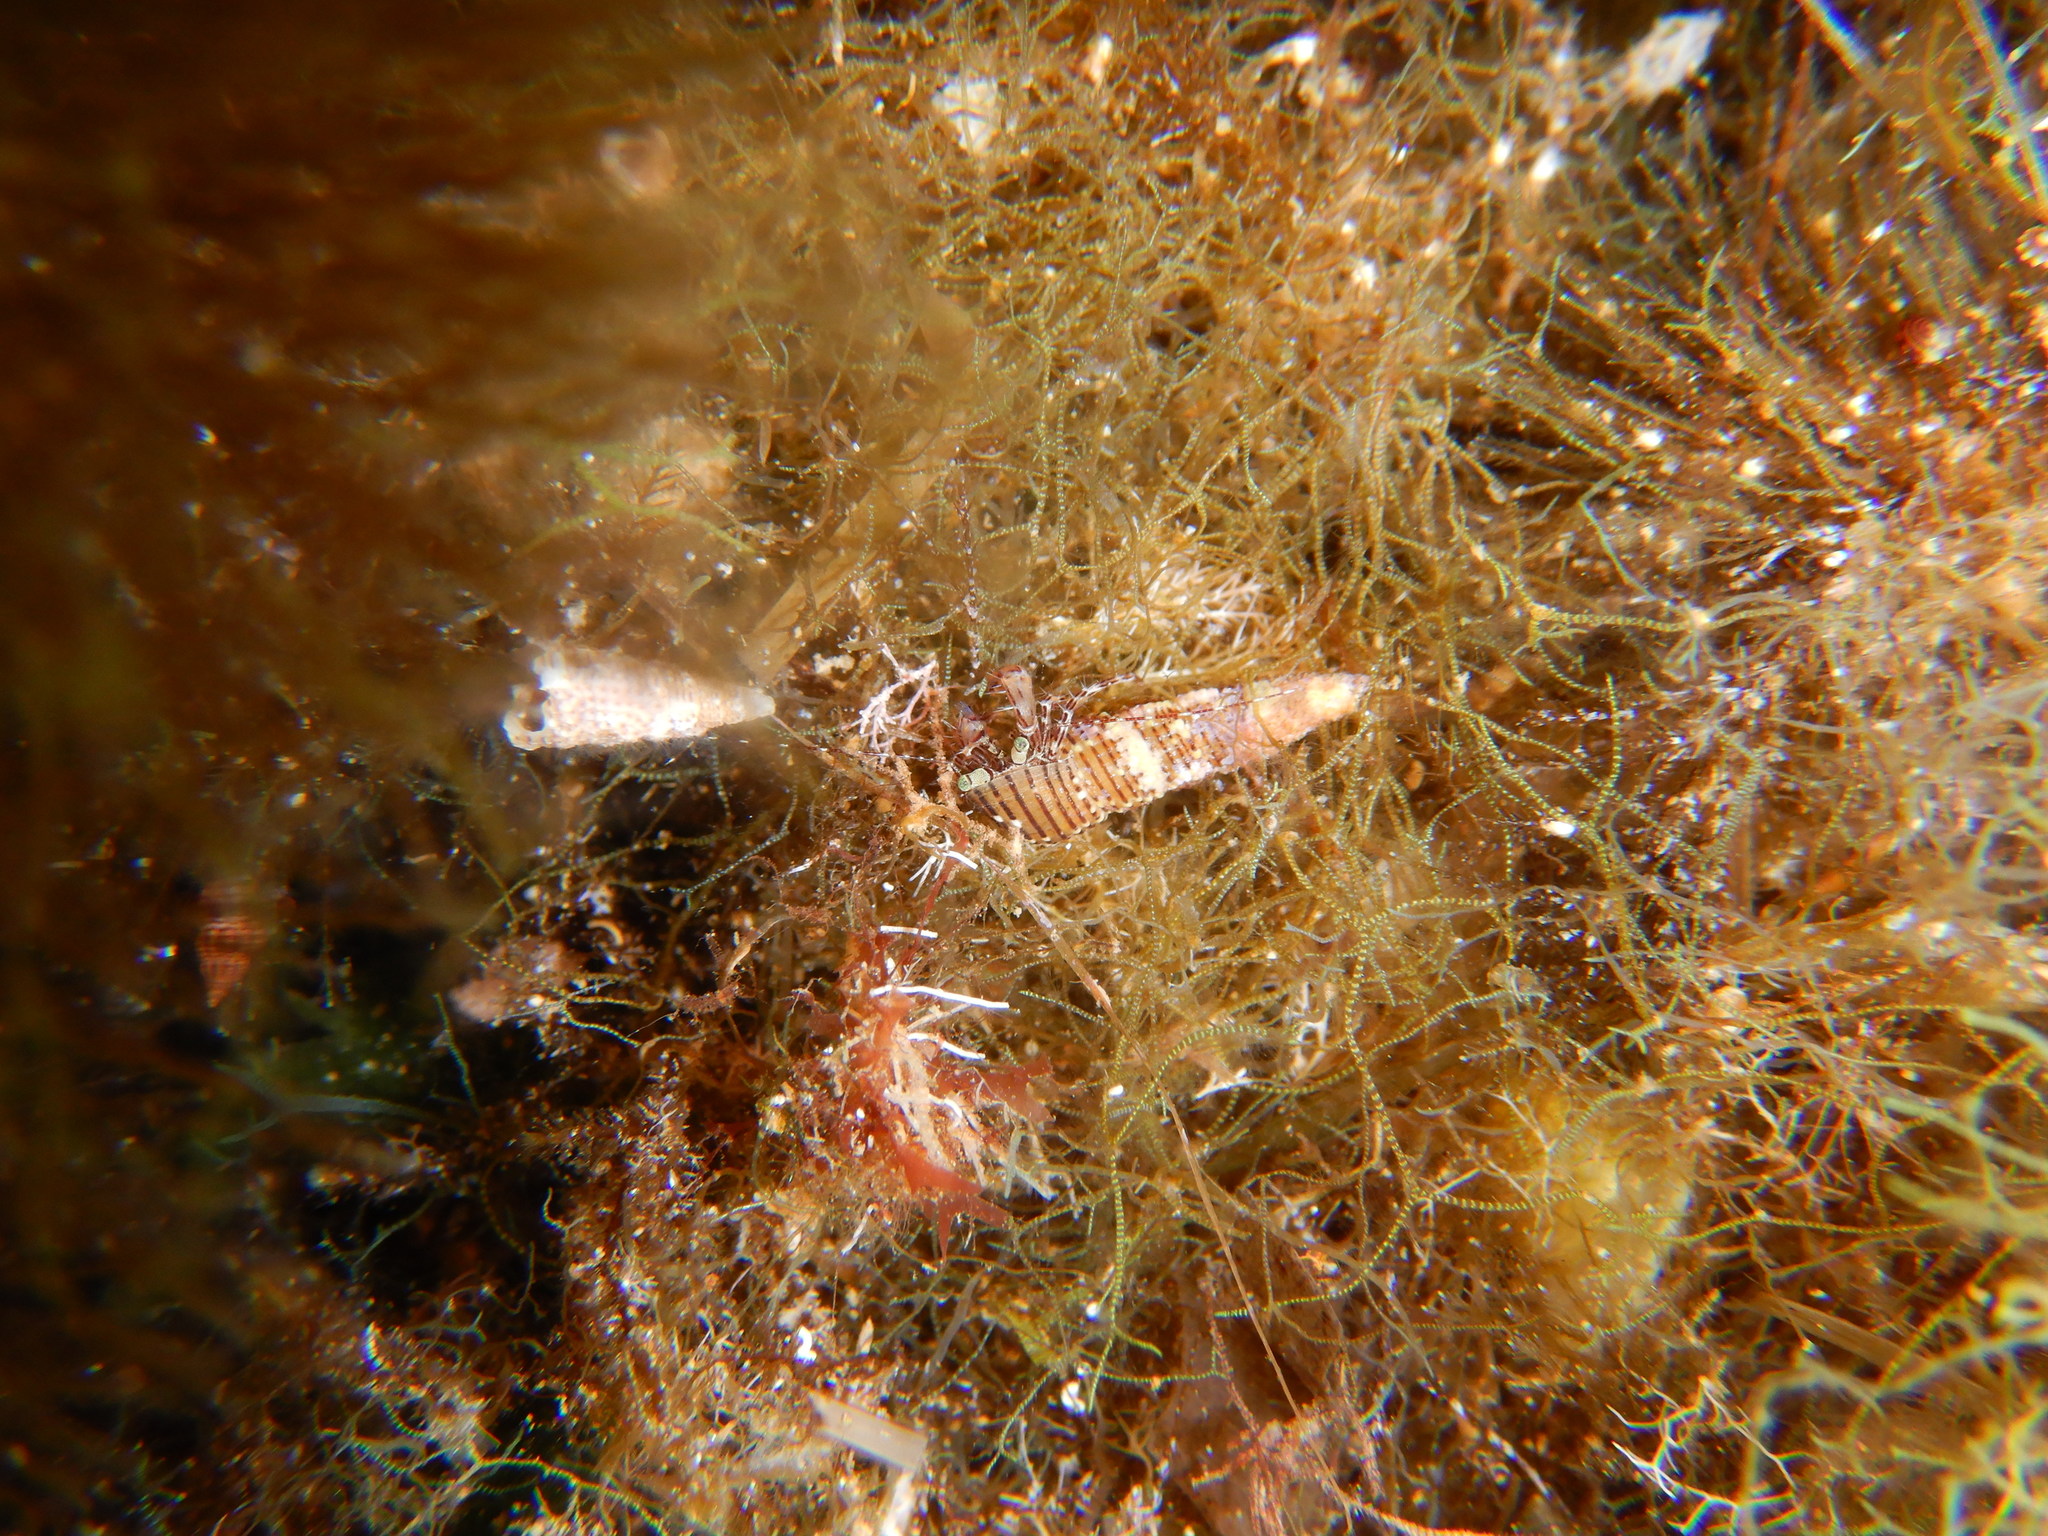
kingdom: Animalia
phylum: Arthropoda
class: Malacostraca
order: Decapoda
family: Paguridae
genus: Pagurus
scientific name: Pagurus anachoretus
